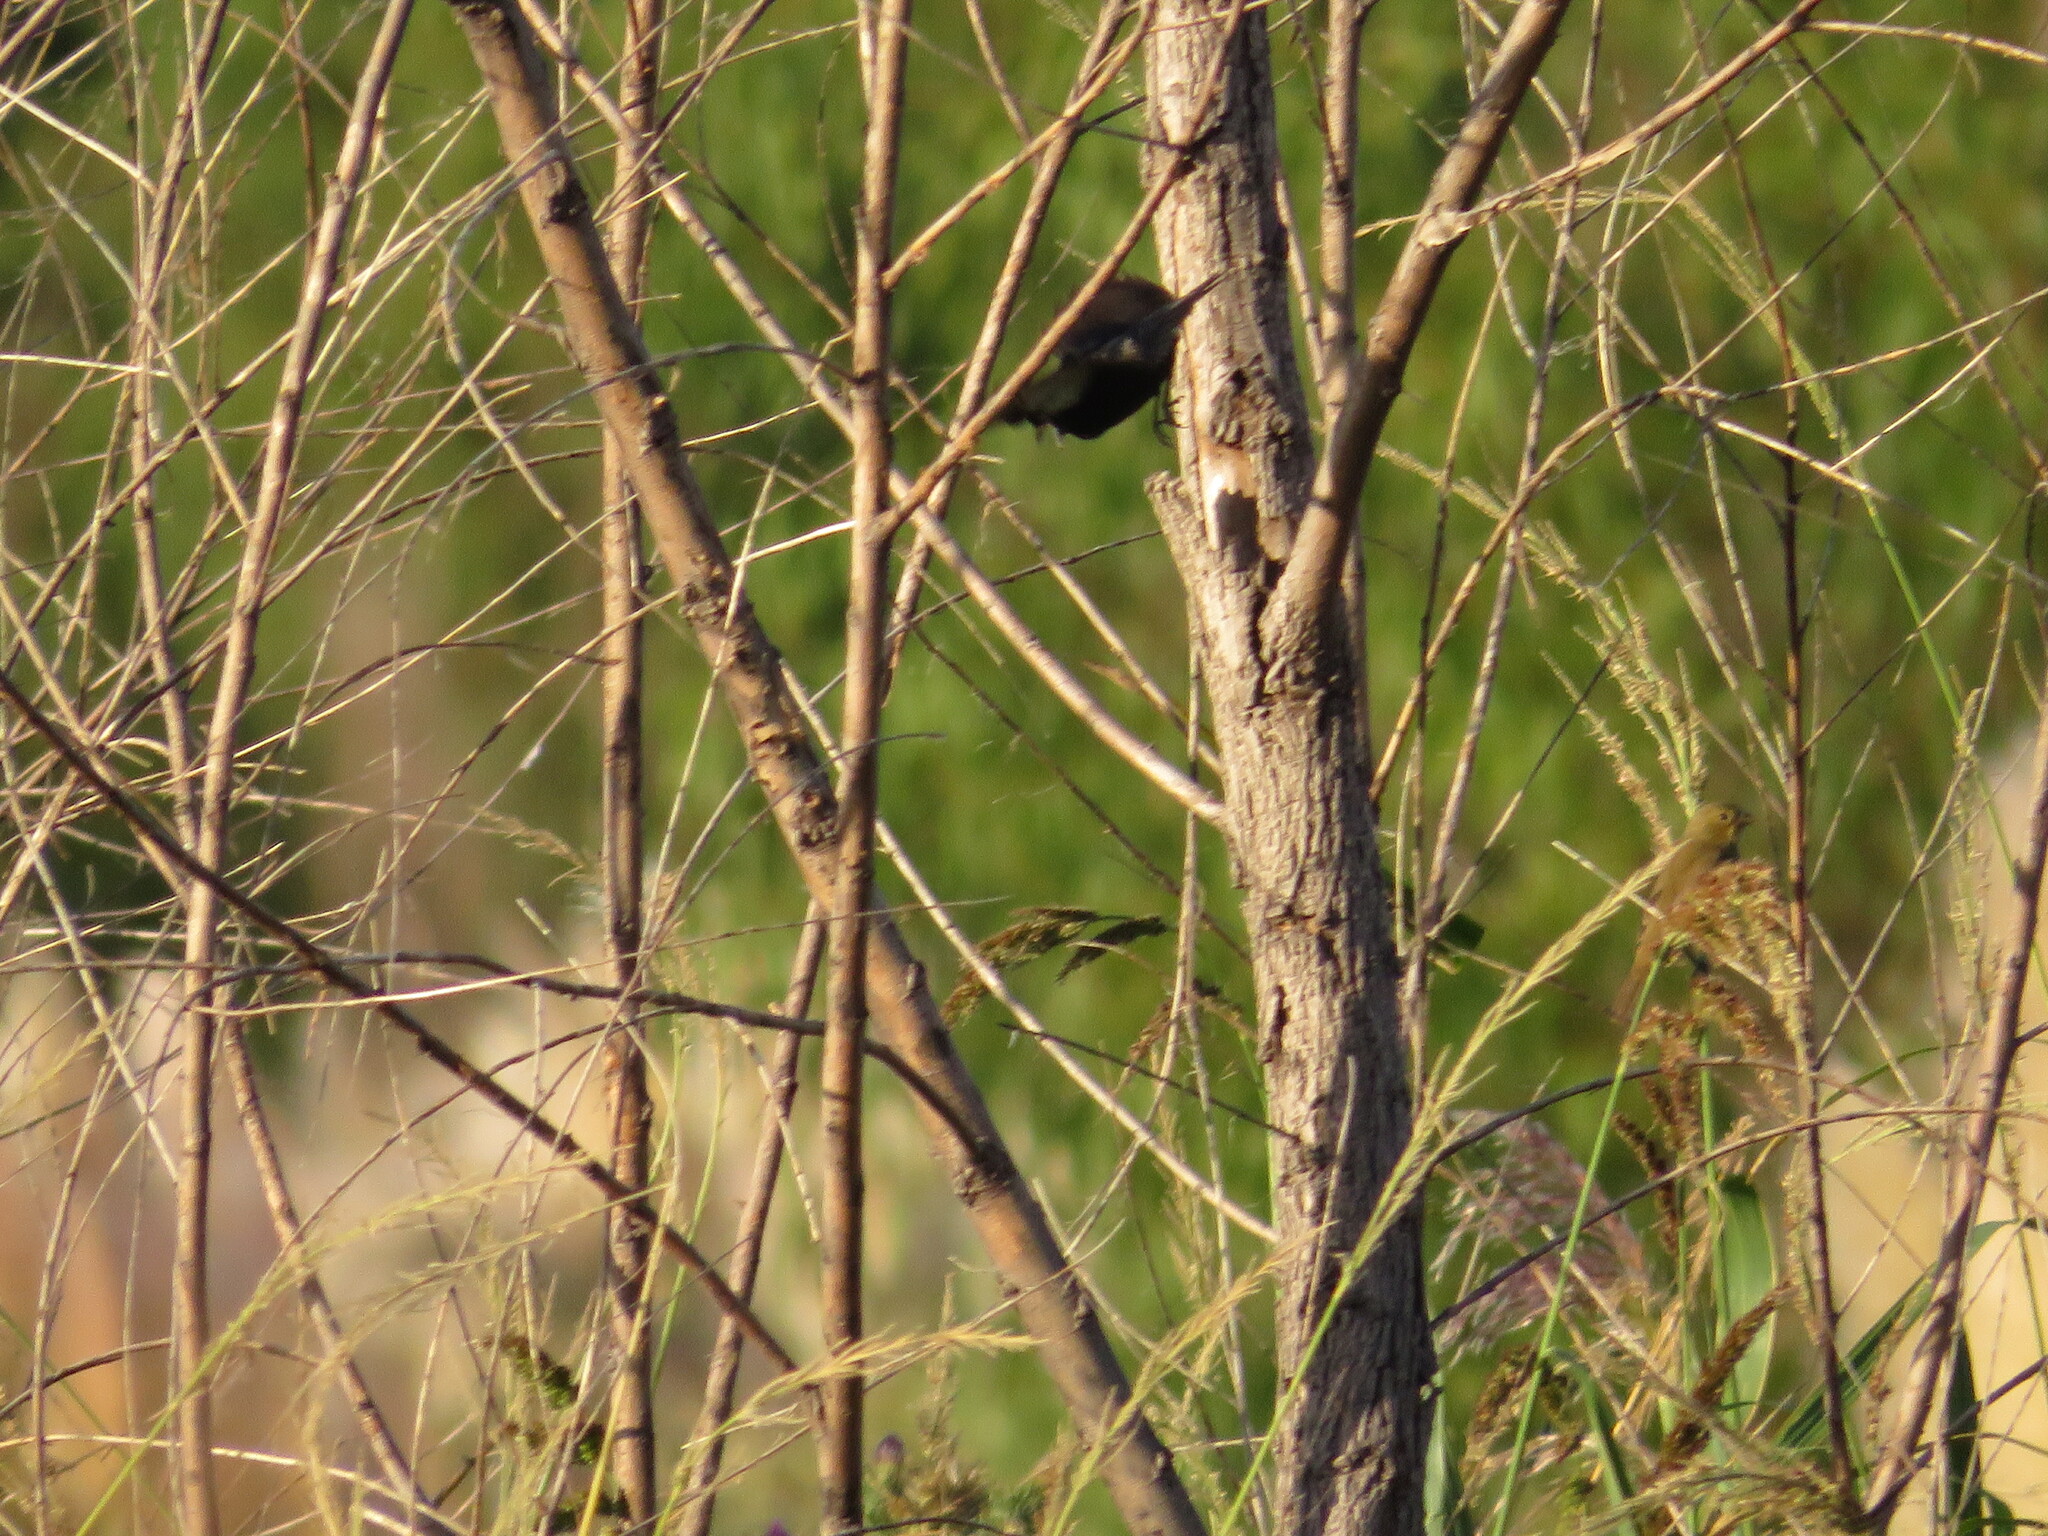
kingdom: Animalia
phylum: Chordata
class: Aves
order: Passeriformes
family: Thraupidae
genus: Volatinia
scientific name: Volatinia jacarina
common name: Blue-black grassquit
